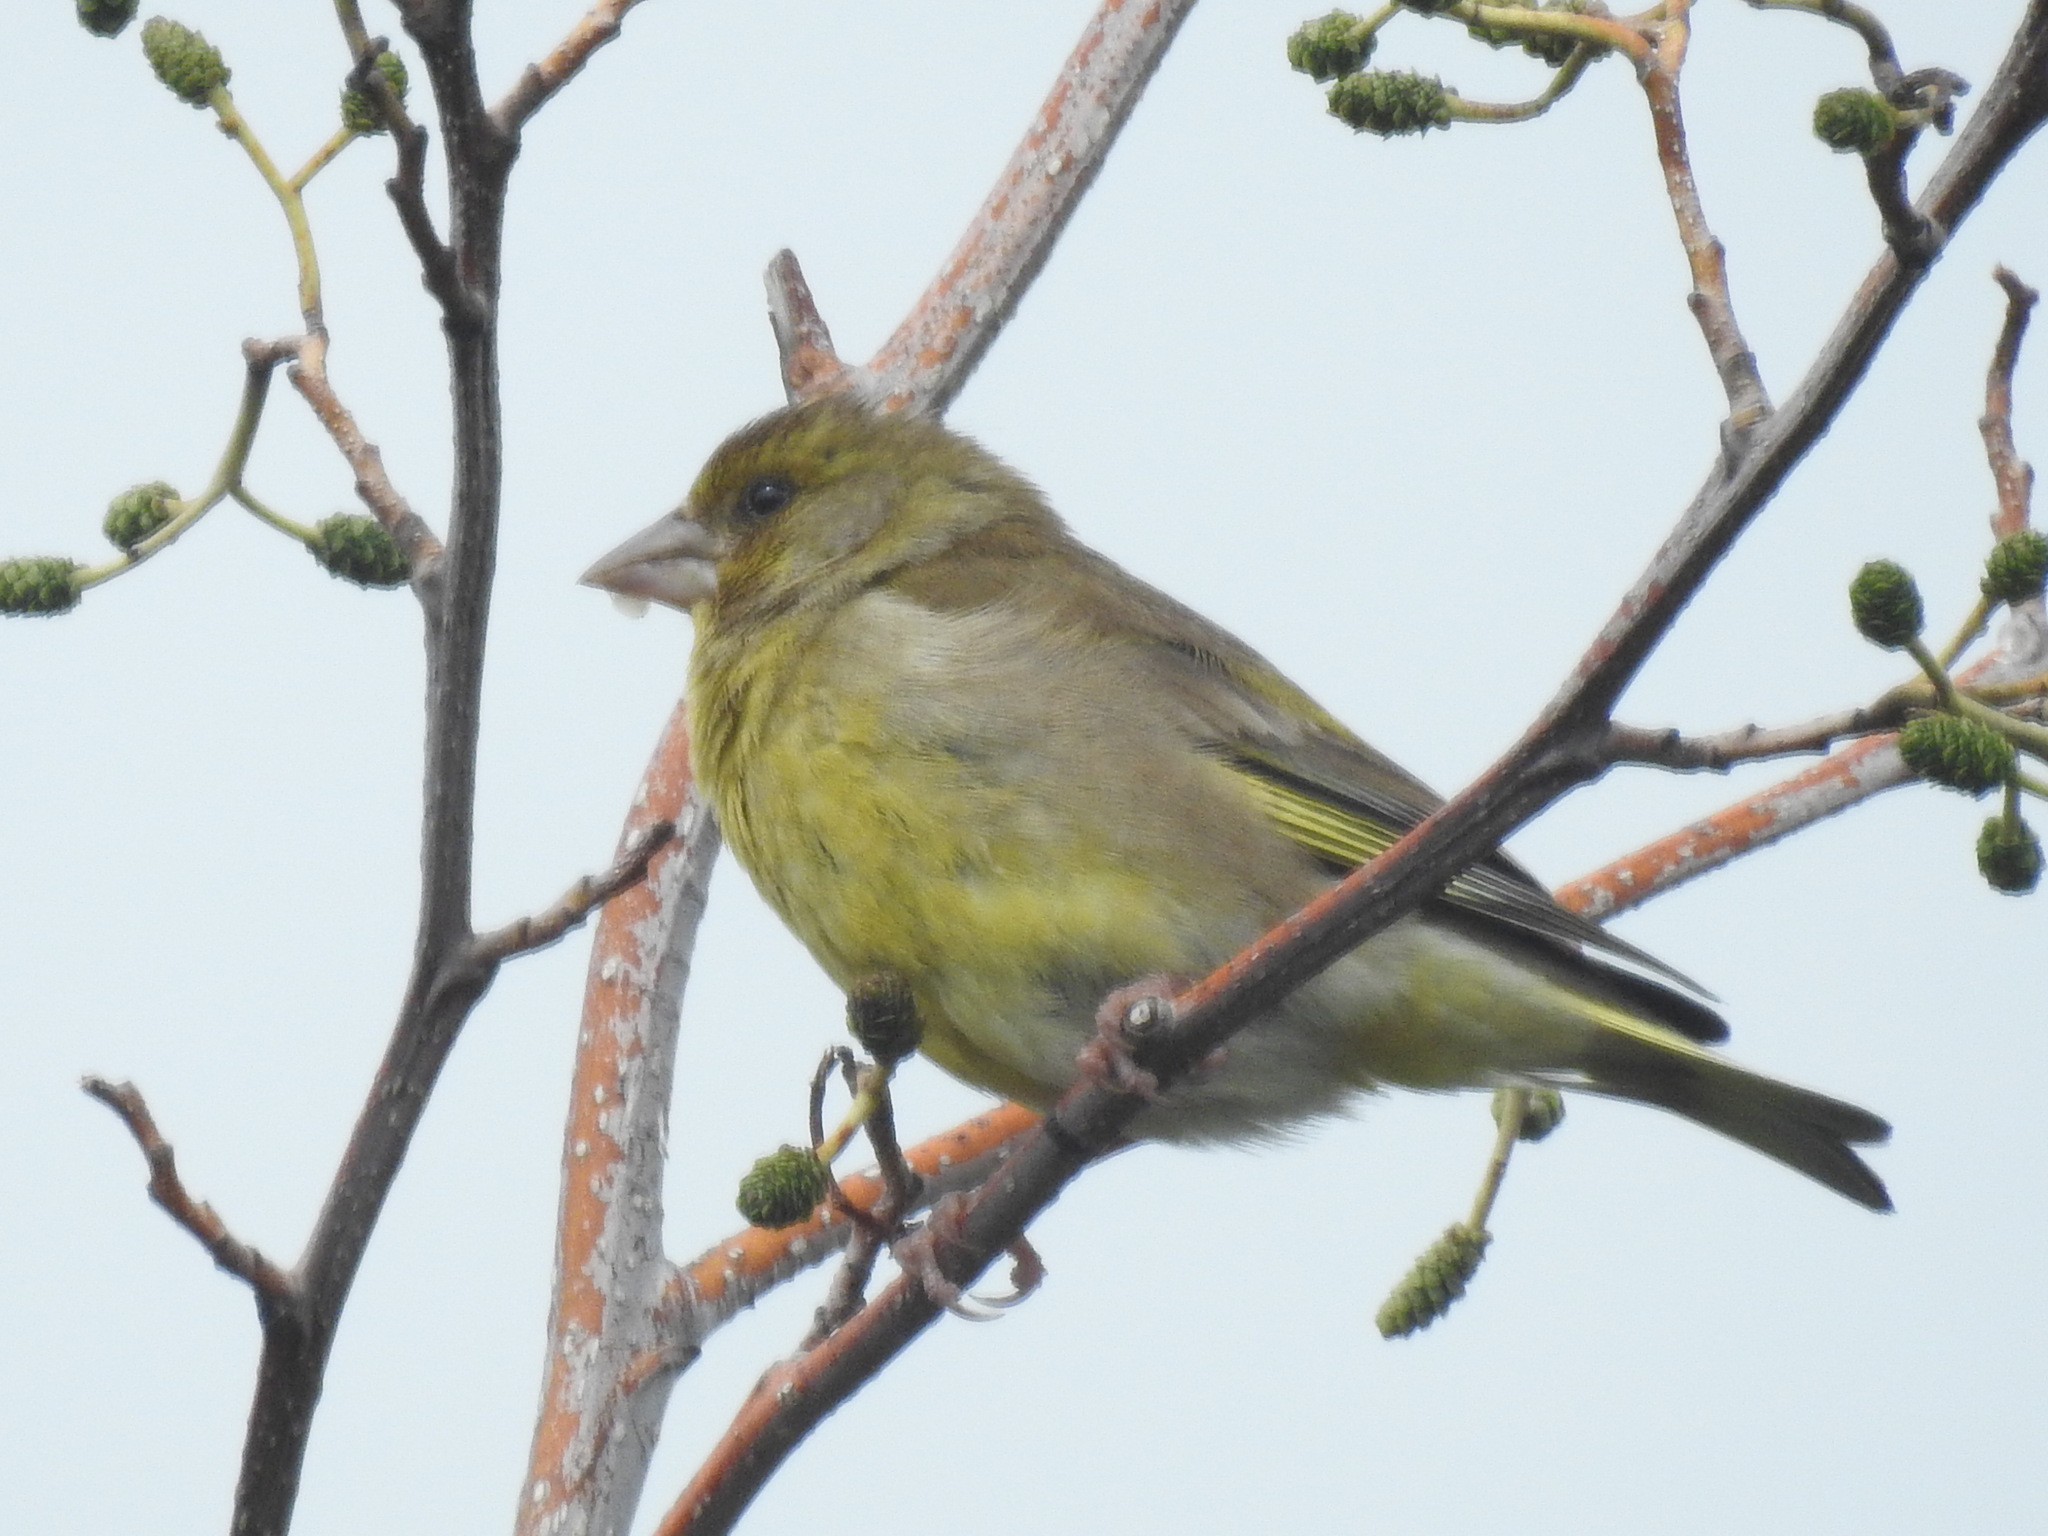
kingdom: Plantae
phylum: Tracheophyta
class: Liliopsida
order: Poales
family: Poaceae
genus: Chloris
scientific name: Chloris chloris
